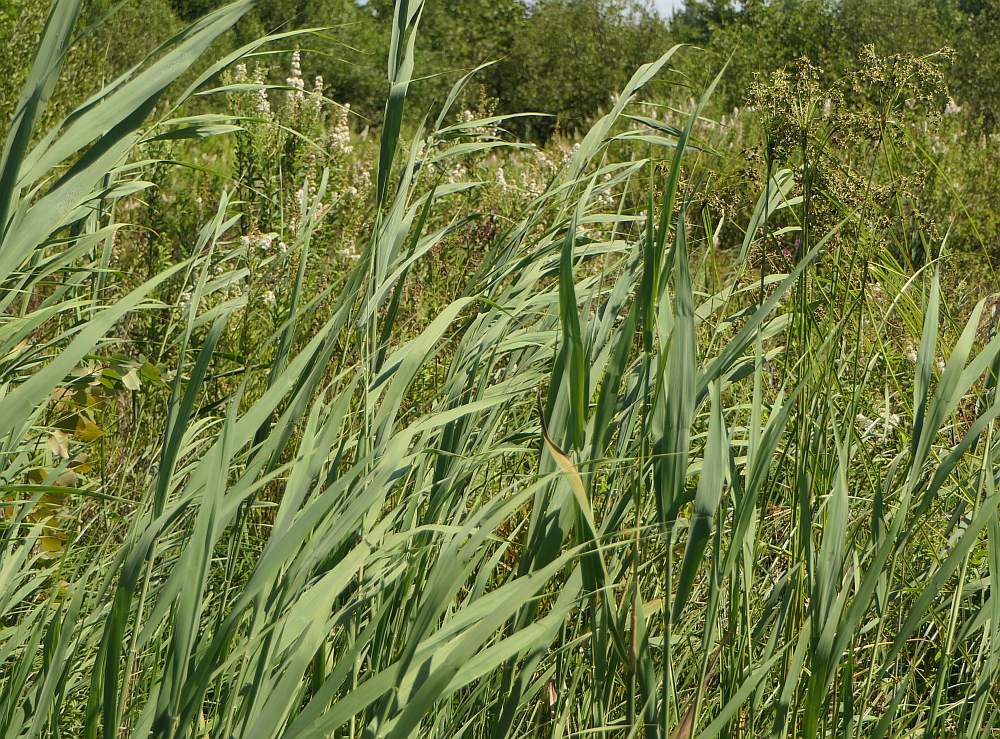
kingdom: Plantae
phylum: Tracheophyta
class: Liliopsida
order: Poales
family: Poaceae
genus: Phragmites
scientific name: Phragmites australis
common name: Common reed
